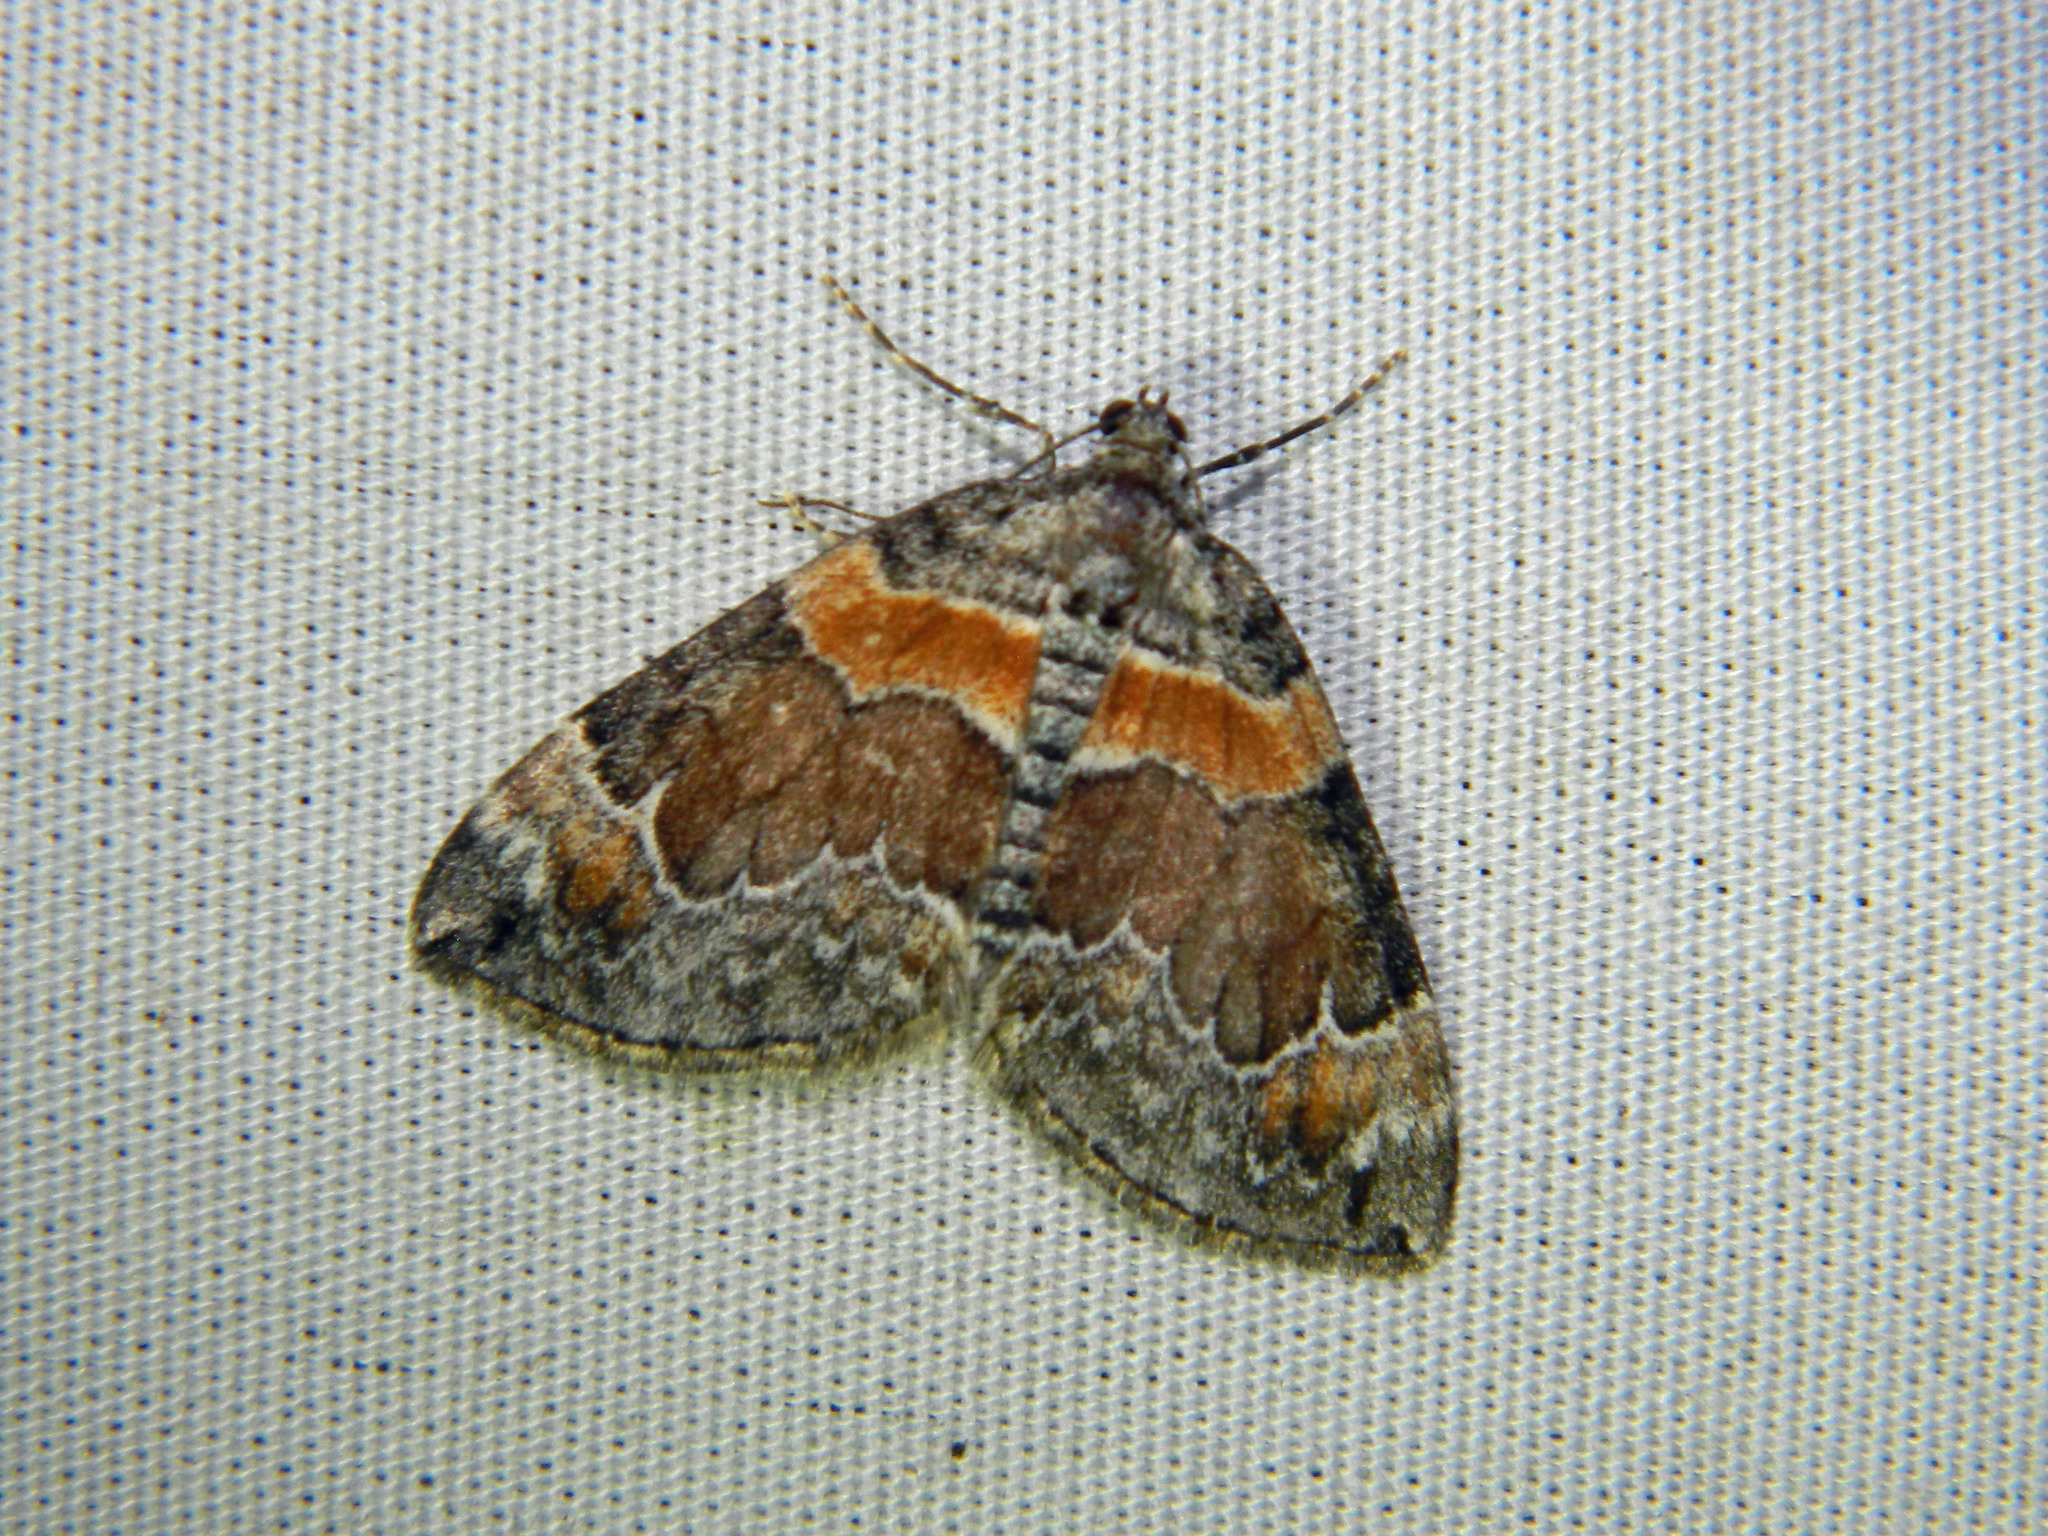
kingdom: Animalia
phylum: Arthropoda
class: Insecta
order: Lepidoptera
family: Geometridae
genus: Dysstroma
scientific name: Dysstroma hersiliata
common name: Orange-barred carpet
